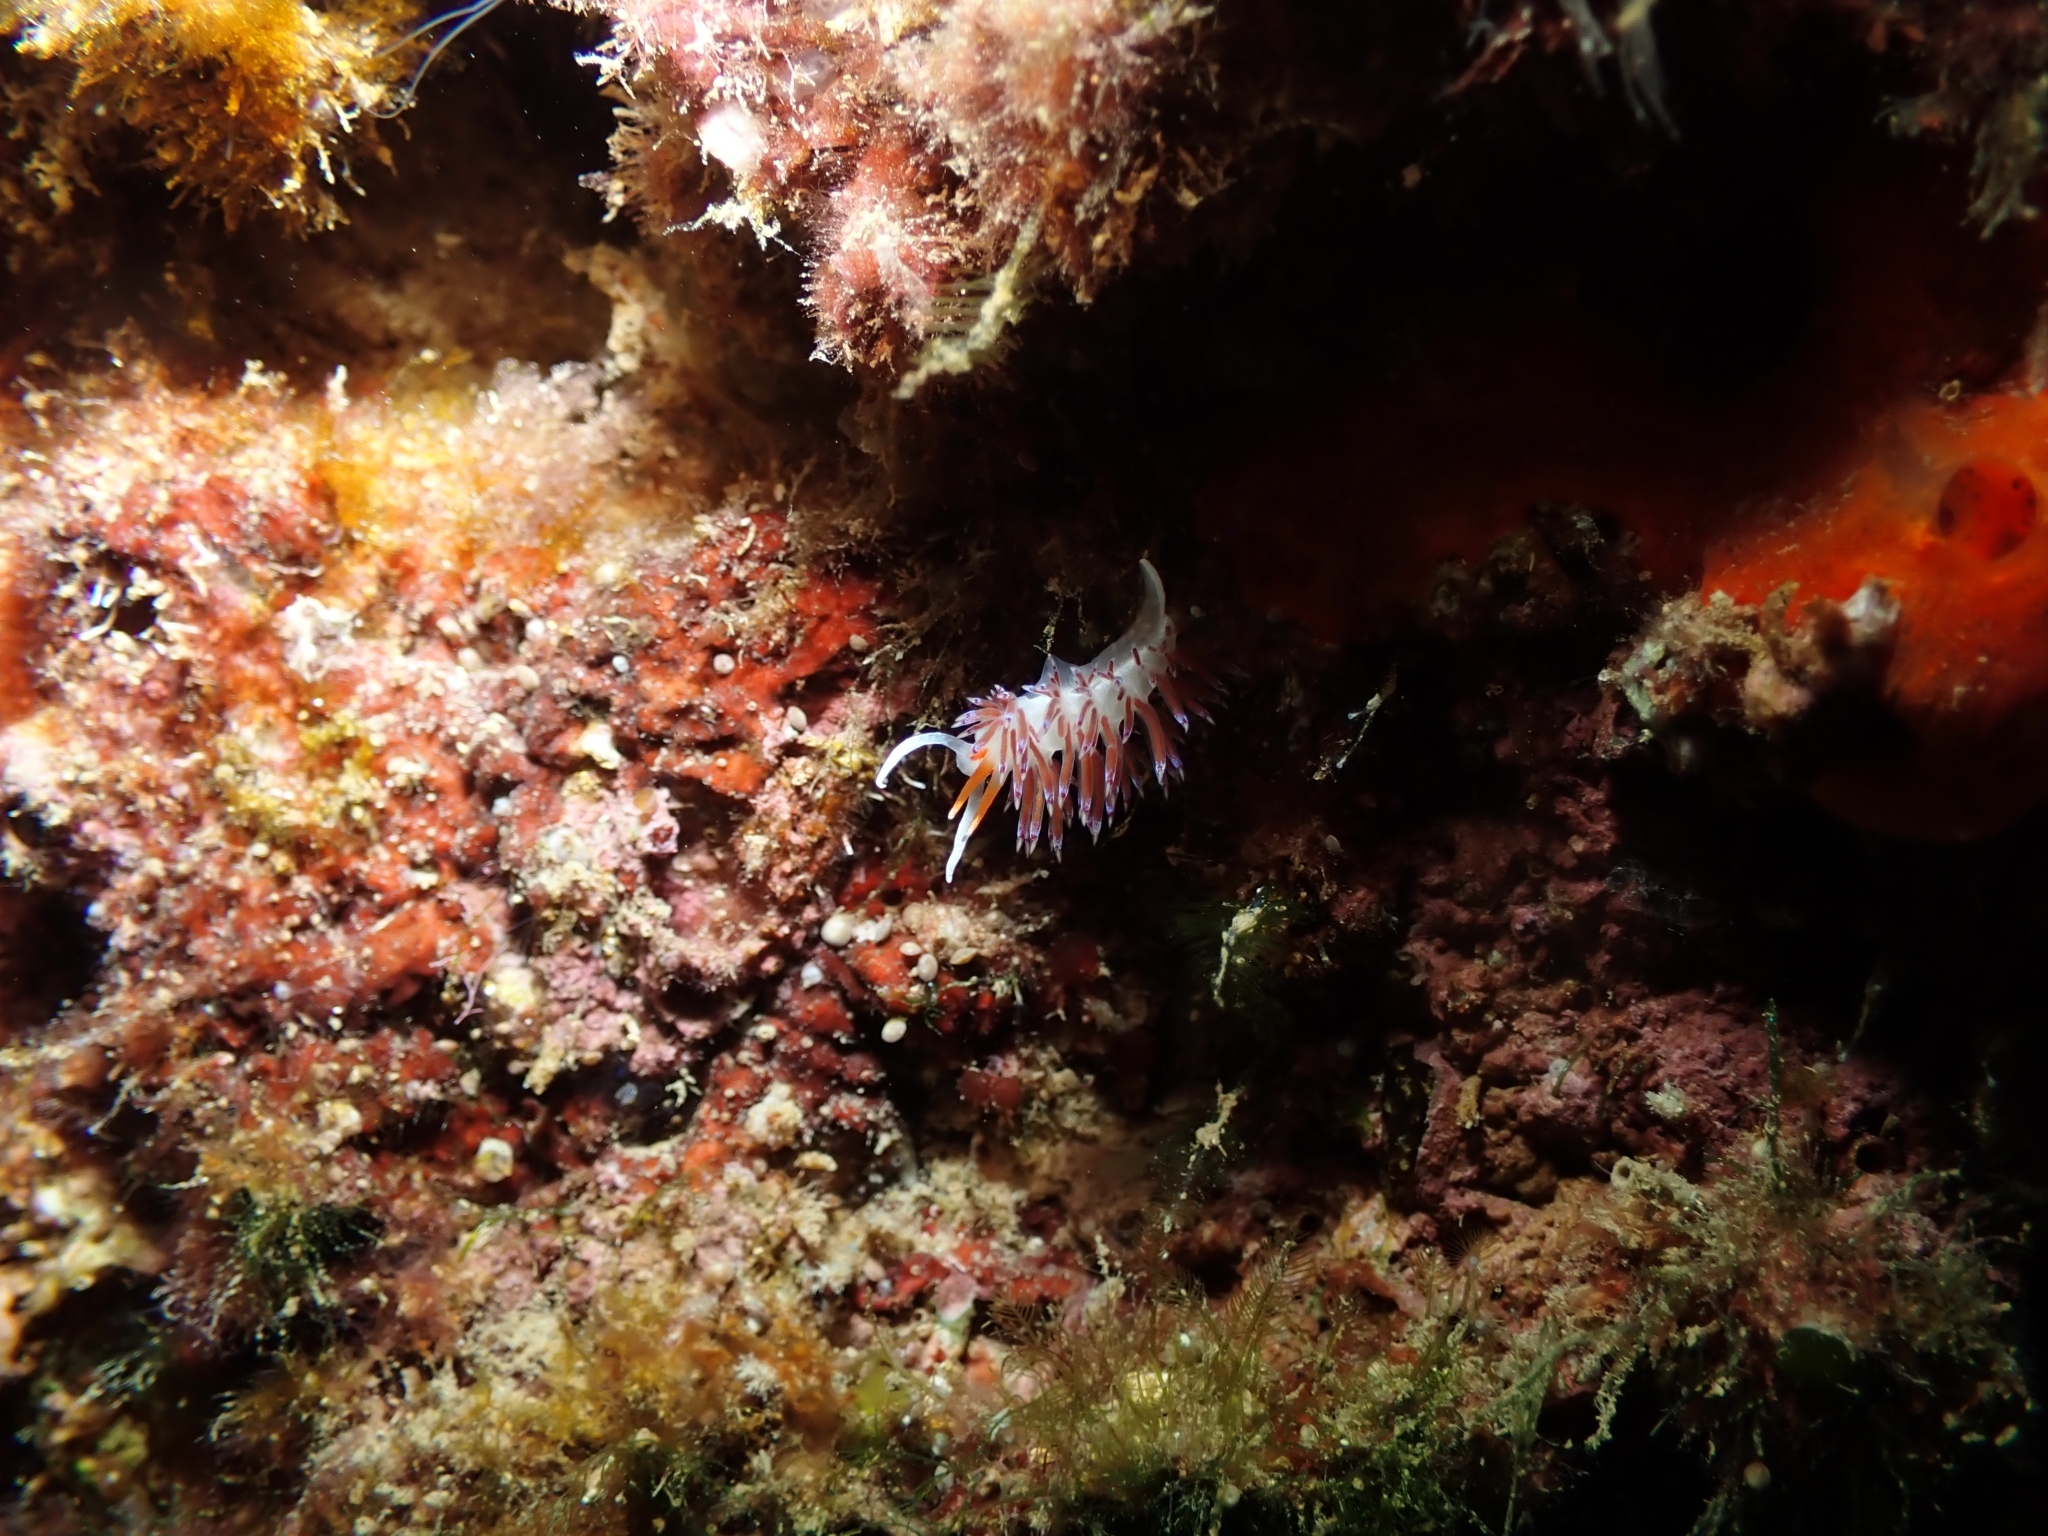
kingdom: Animalia
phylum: Mollusca
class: Gastropoda
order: Nudibranchia
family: Facelinidae
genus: Cratena
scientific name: Cratena peregrina
